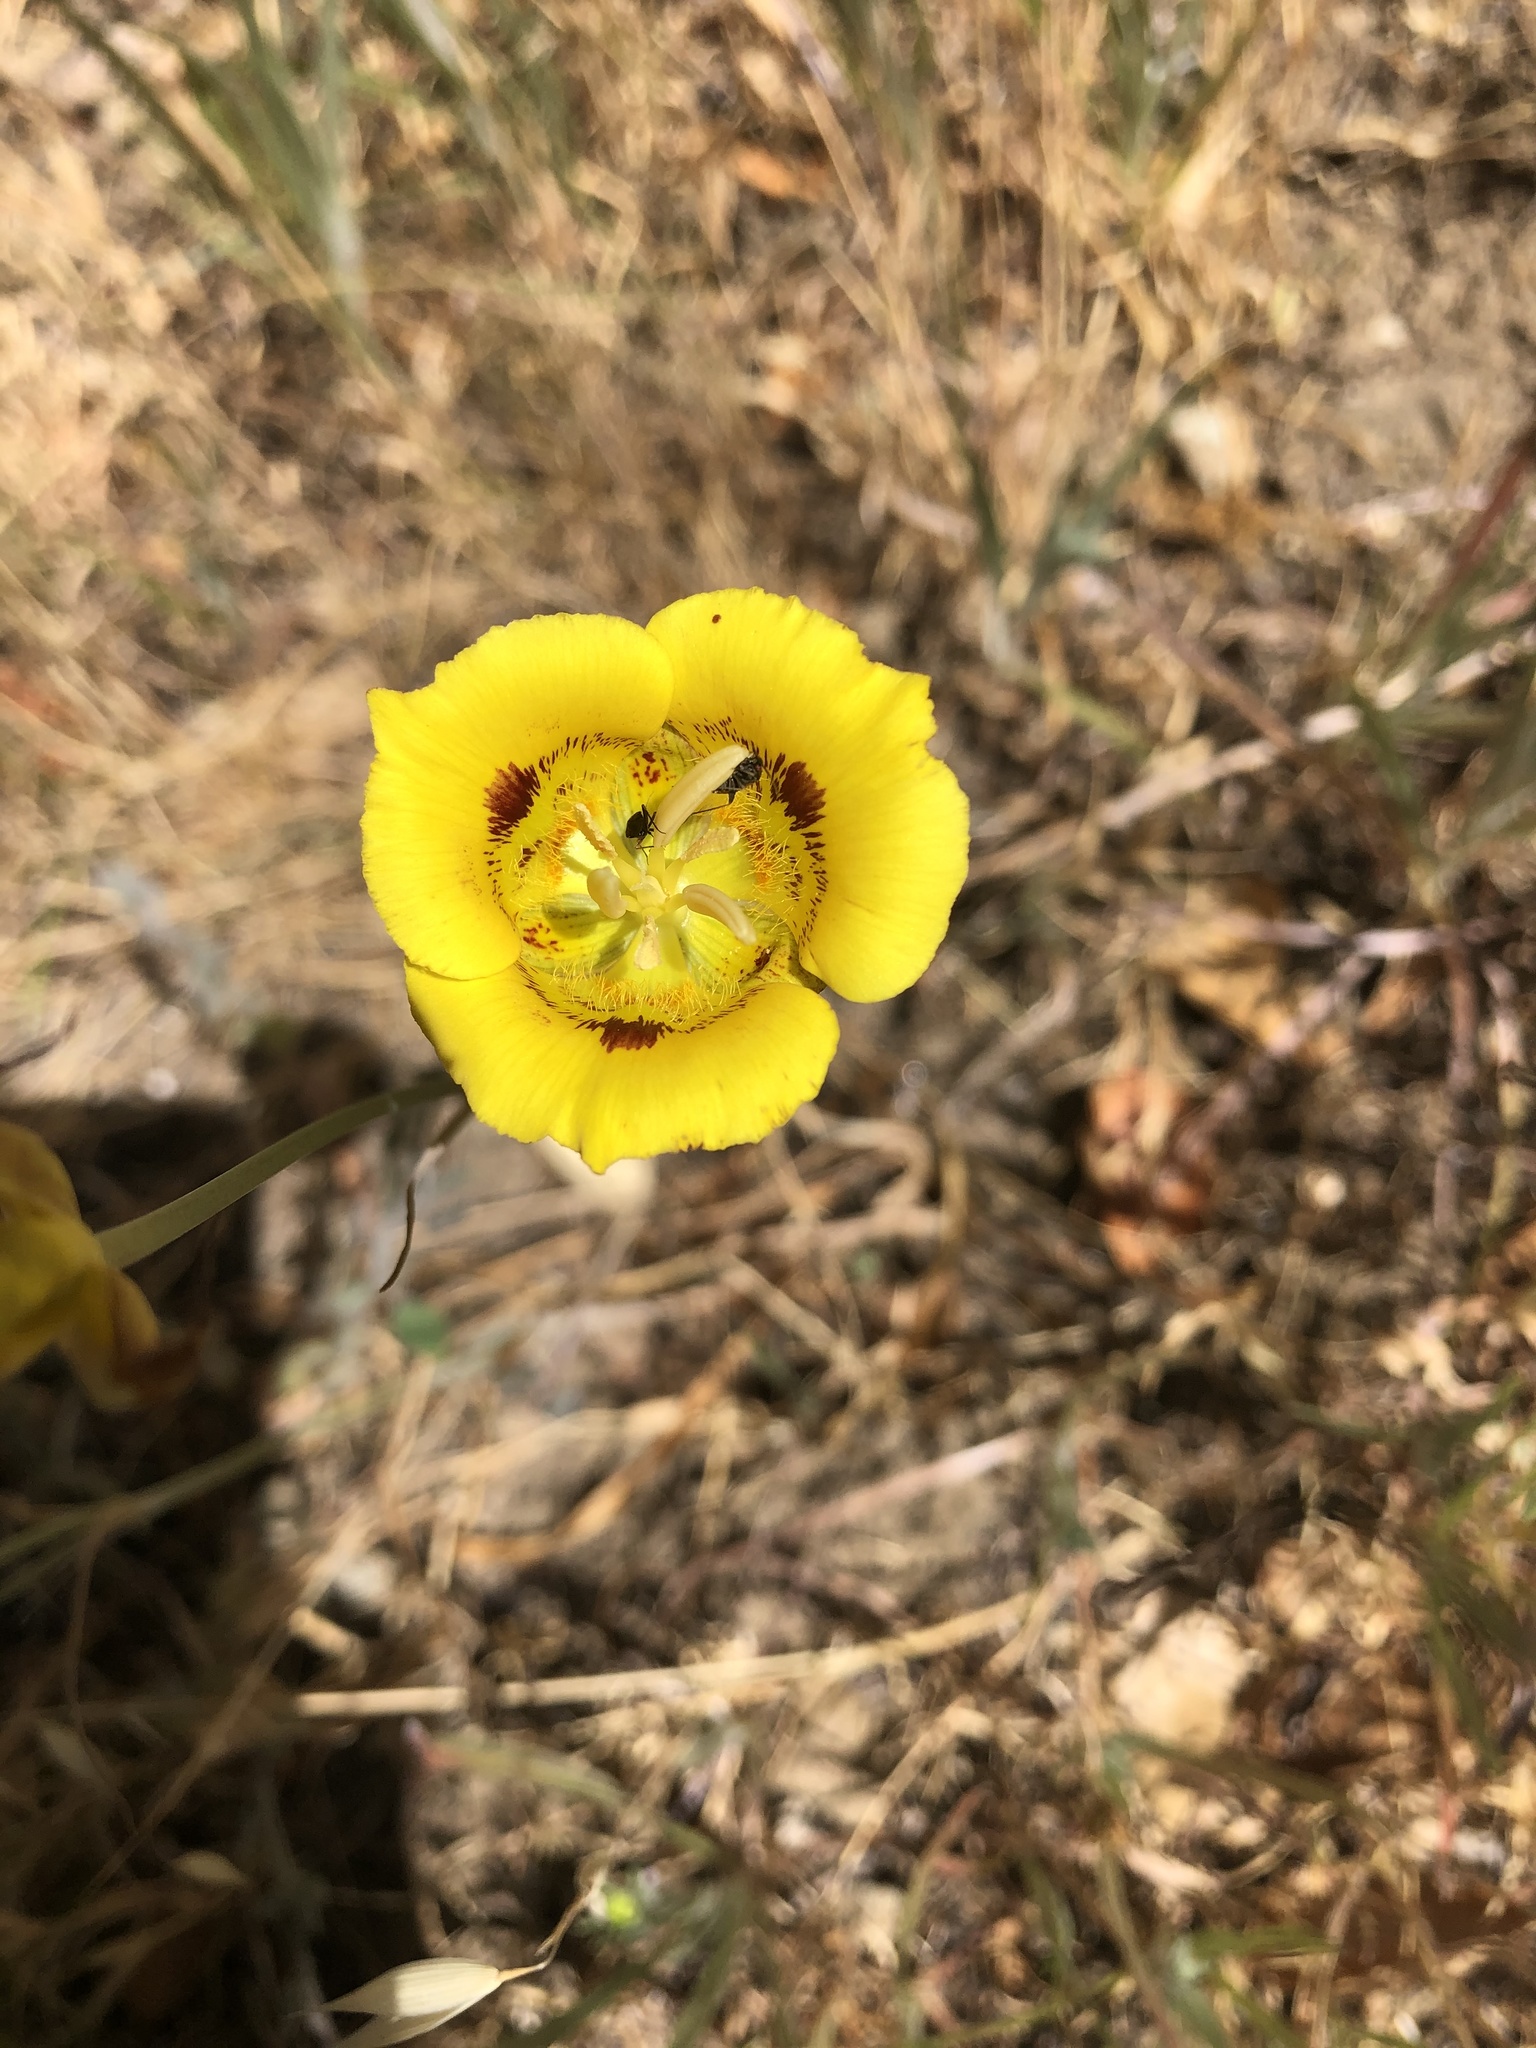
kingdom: Plantae
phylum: Tracheophyta
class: Liliopsida
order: Liliales
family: Liliaceae
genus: Calochortus
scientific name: Calochortus luteus
